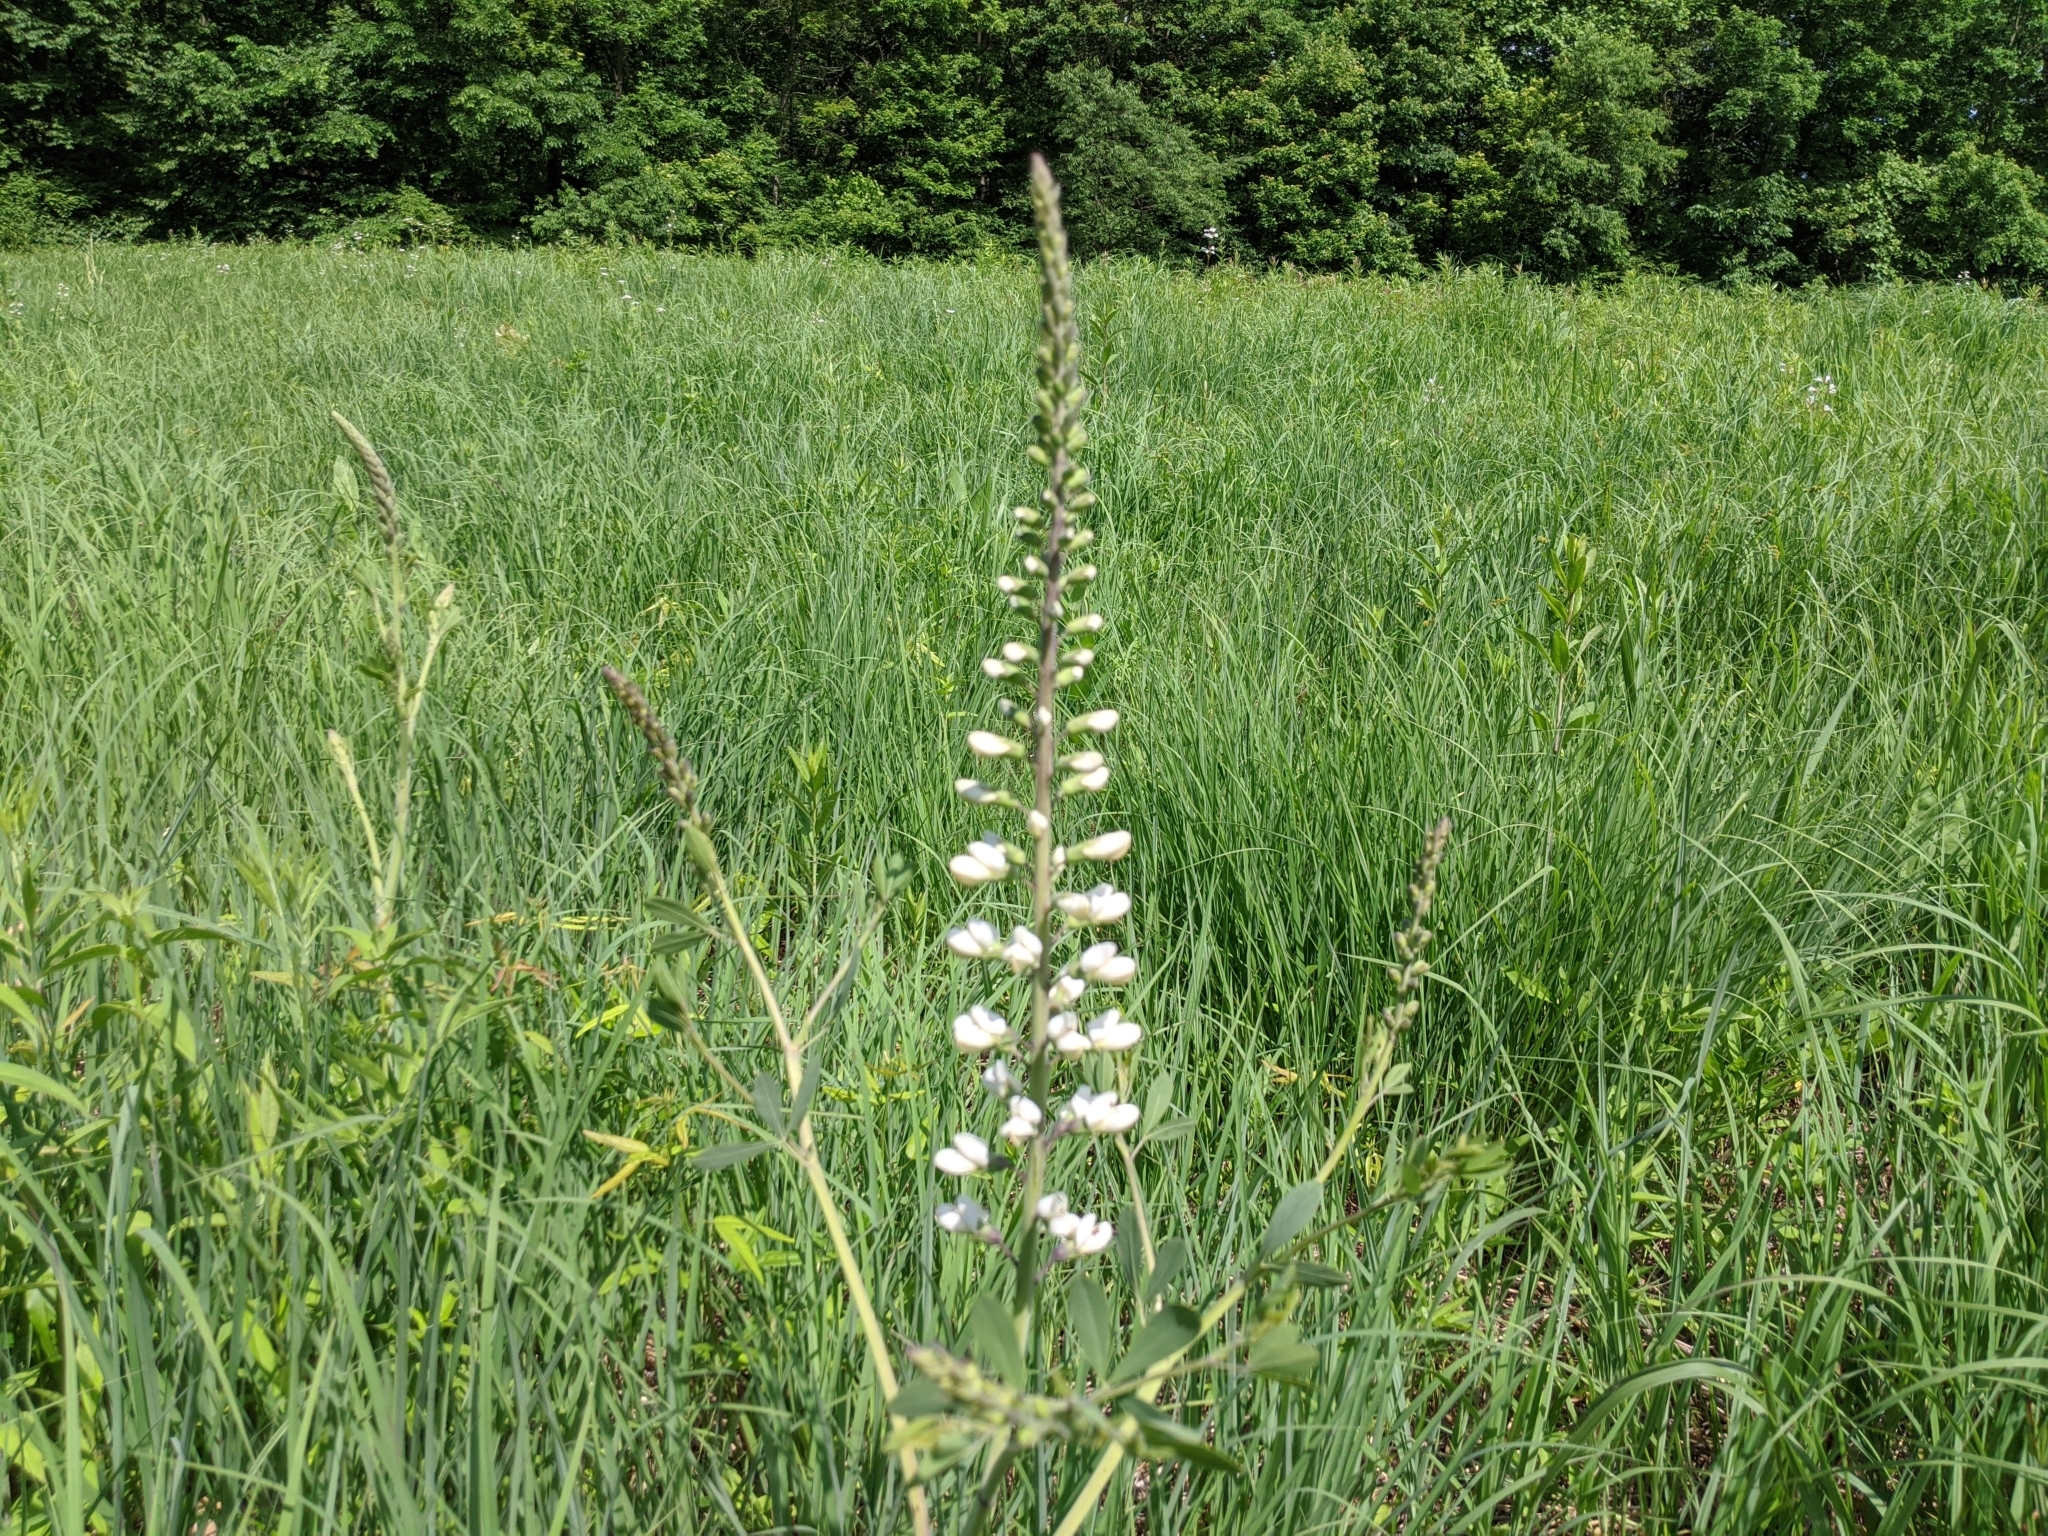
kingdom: Plantae
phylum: Tracheophyta
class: Magnoliopsida
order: Fabales
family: Fabaceae
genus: Baptisia
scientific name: Baptisia alba
